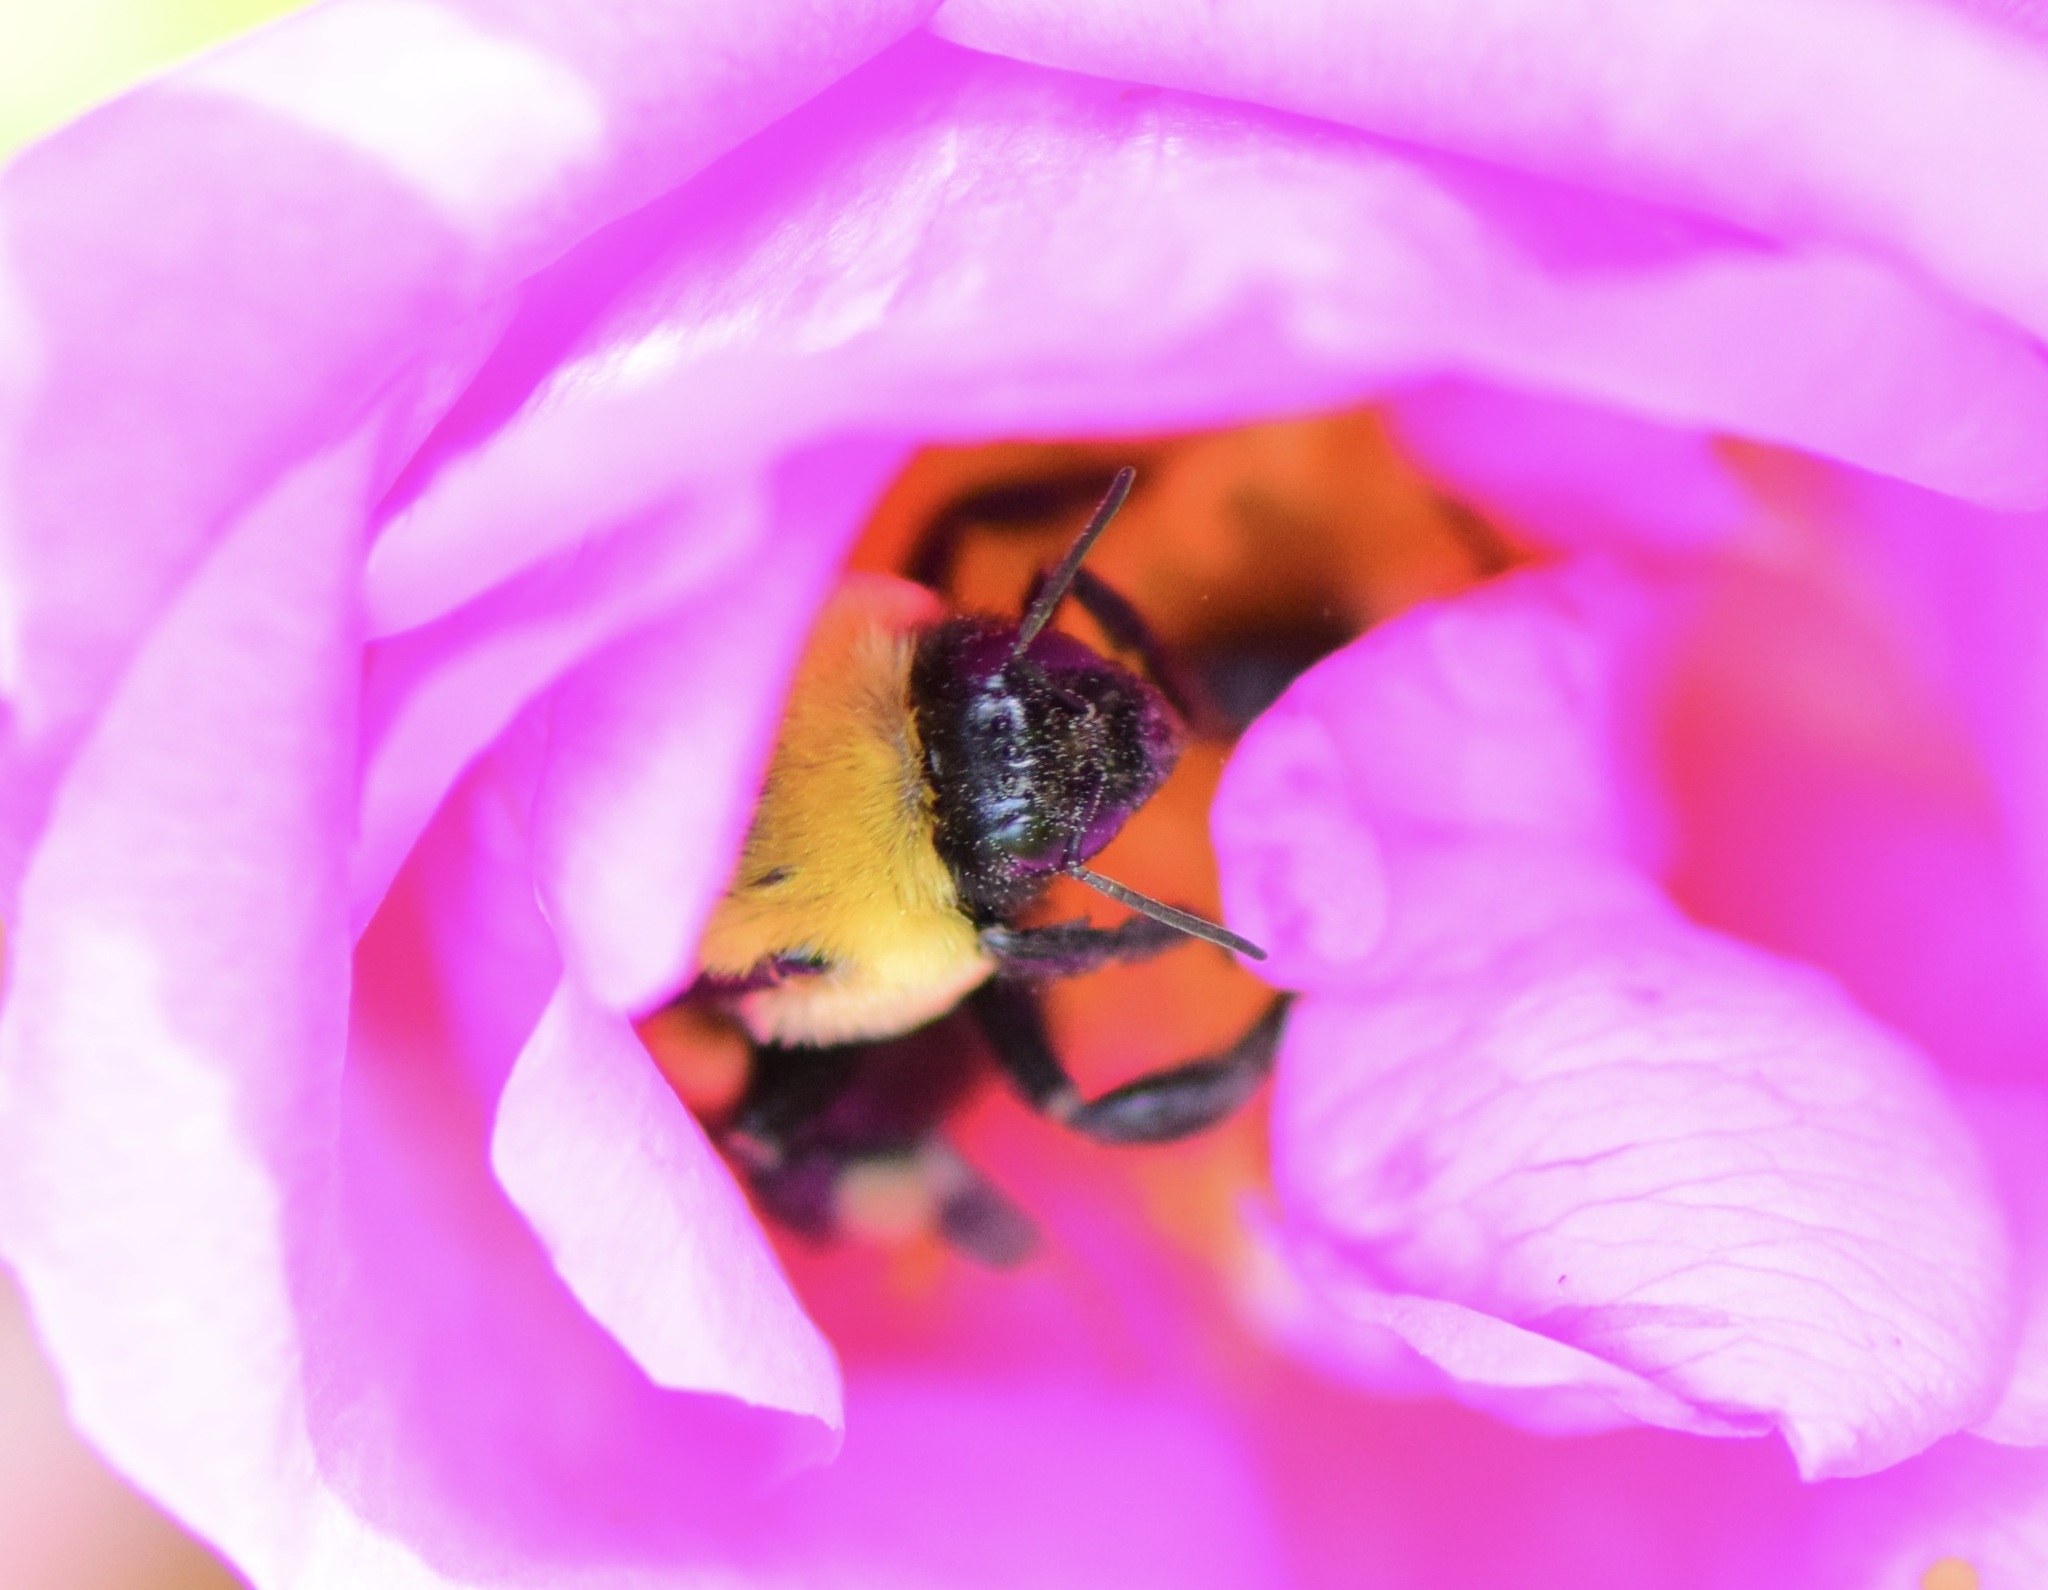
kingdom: Animalia
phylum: Arthropoda
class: Insecta
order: Hymenoptera
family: Apidae
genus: Bombus
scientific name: Bombus griseocollis
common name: Brown-belted bumble bee
